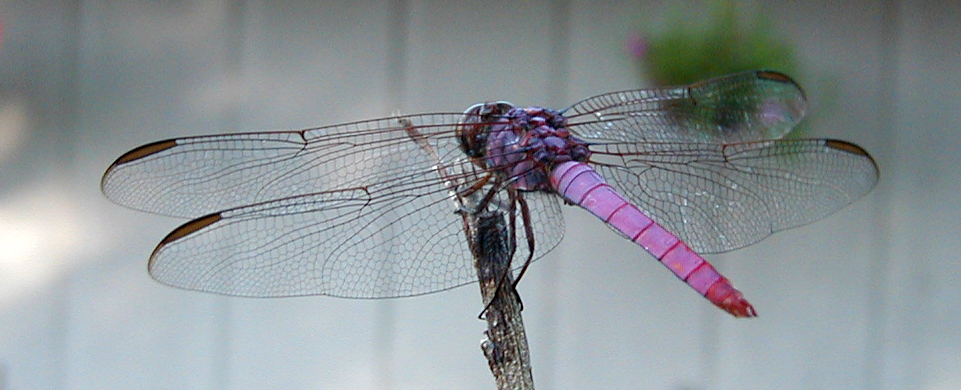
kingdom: Animalia
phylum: Arthropoda
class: Insecta
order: Odonata
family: Libellulidae
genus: Orthemis
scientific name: Orthemis ferruginea
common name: Roseate skimmer
